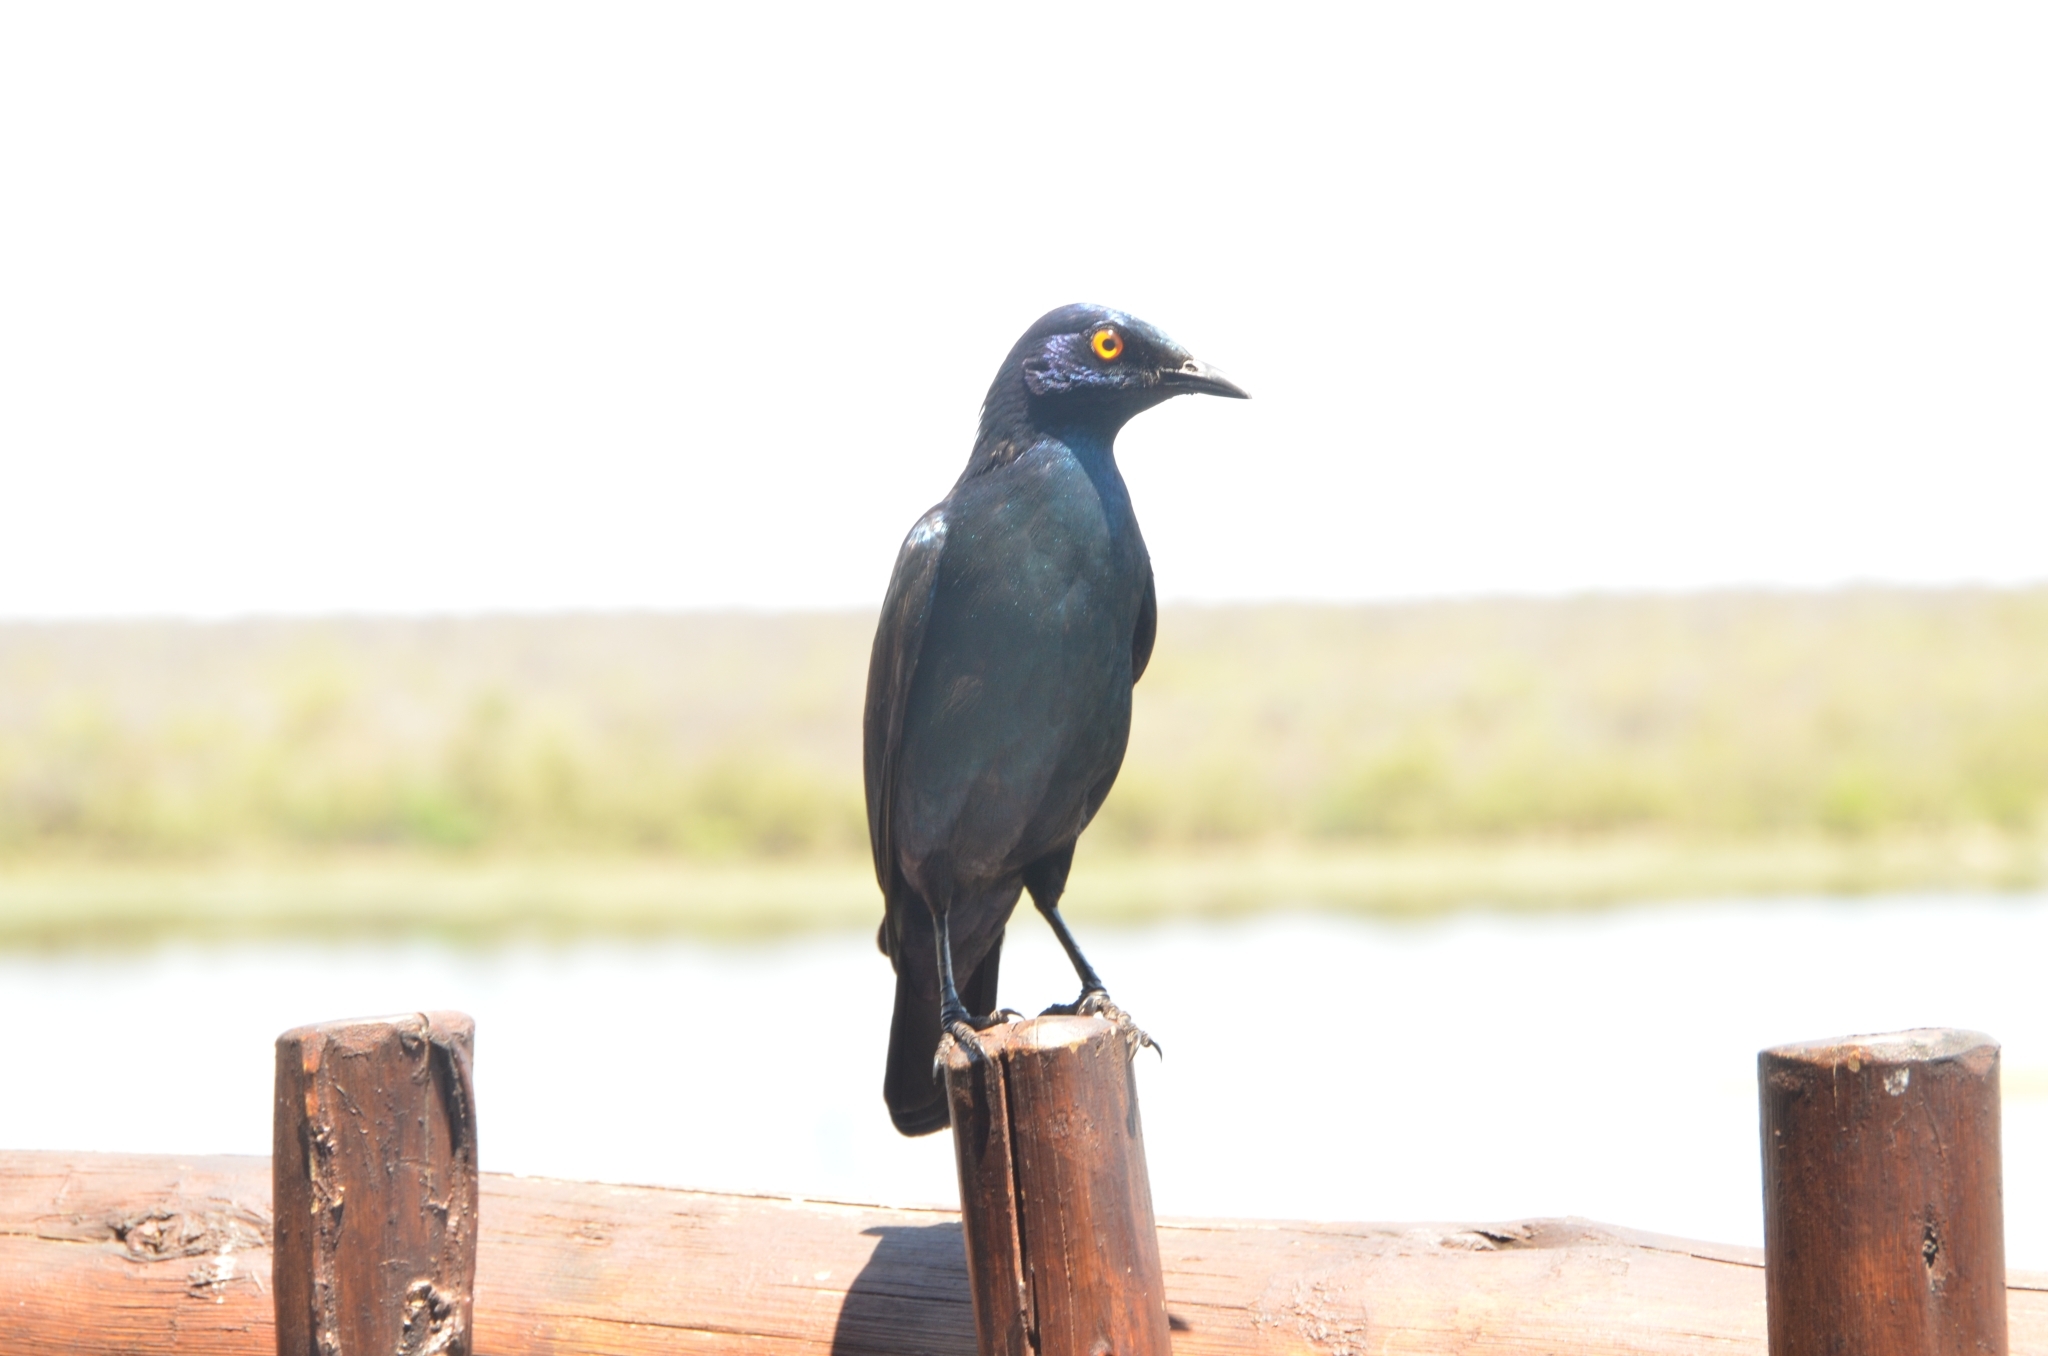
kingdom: Animalia
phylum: Chordata
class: Aves
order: Passeriformes
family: Sturnidae
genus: Lamprotornis
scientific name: Lamprotornis nitens
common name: Cape starling
